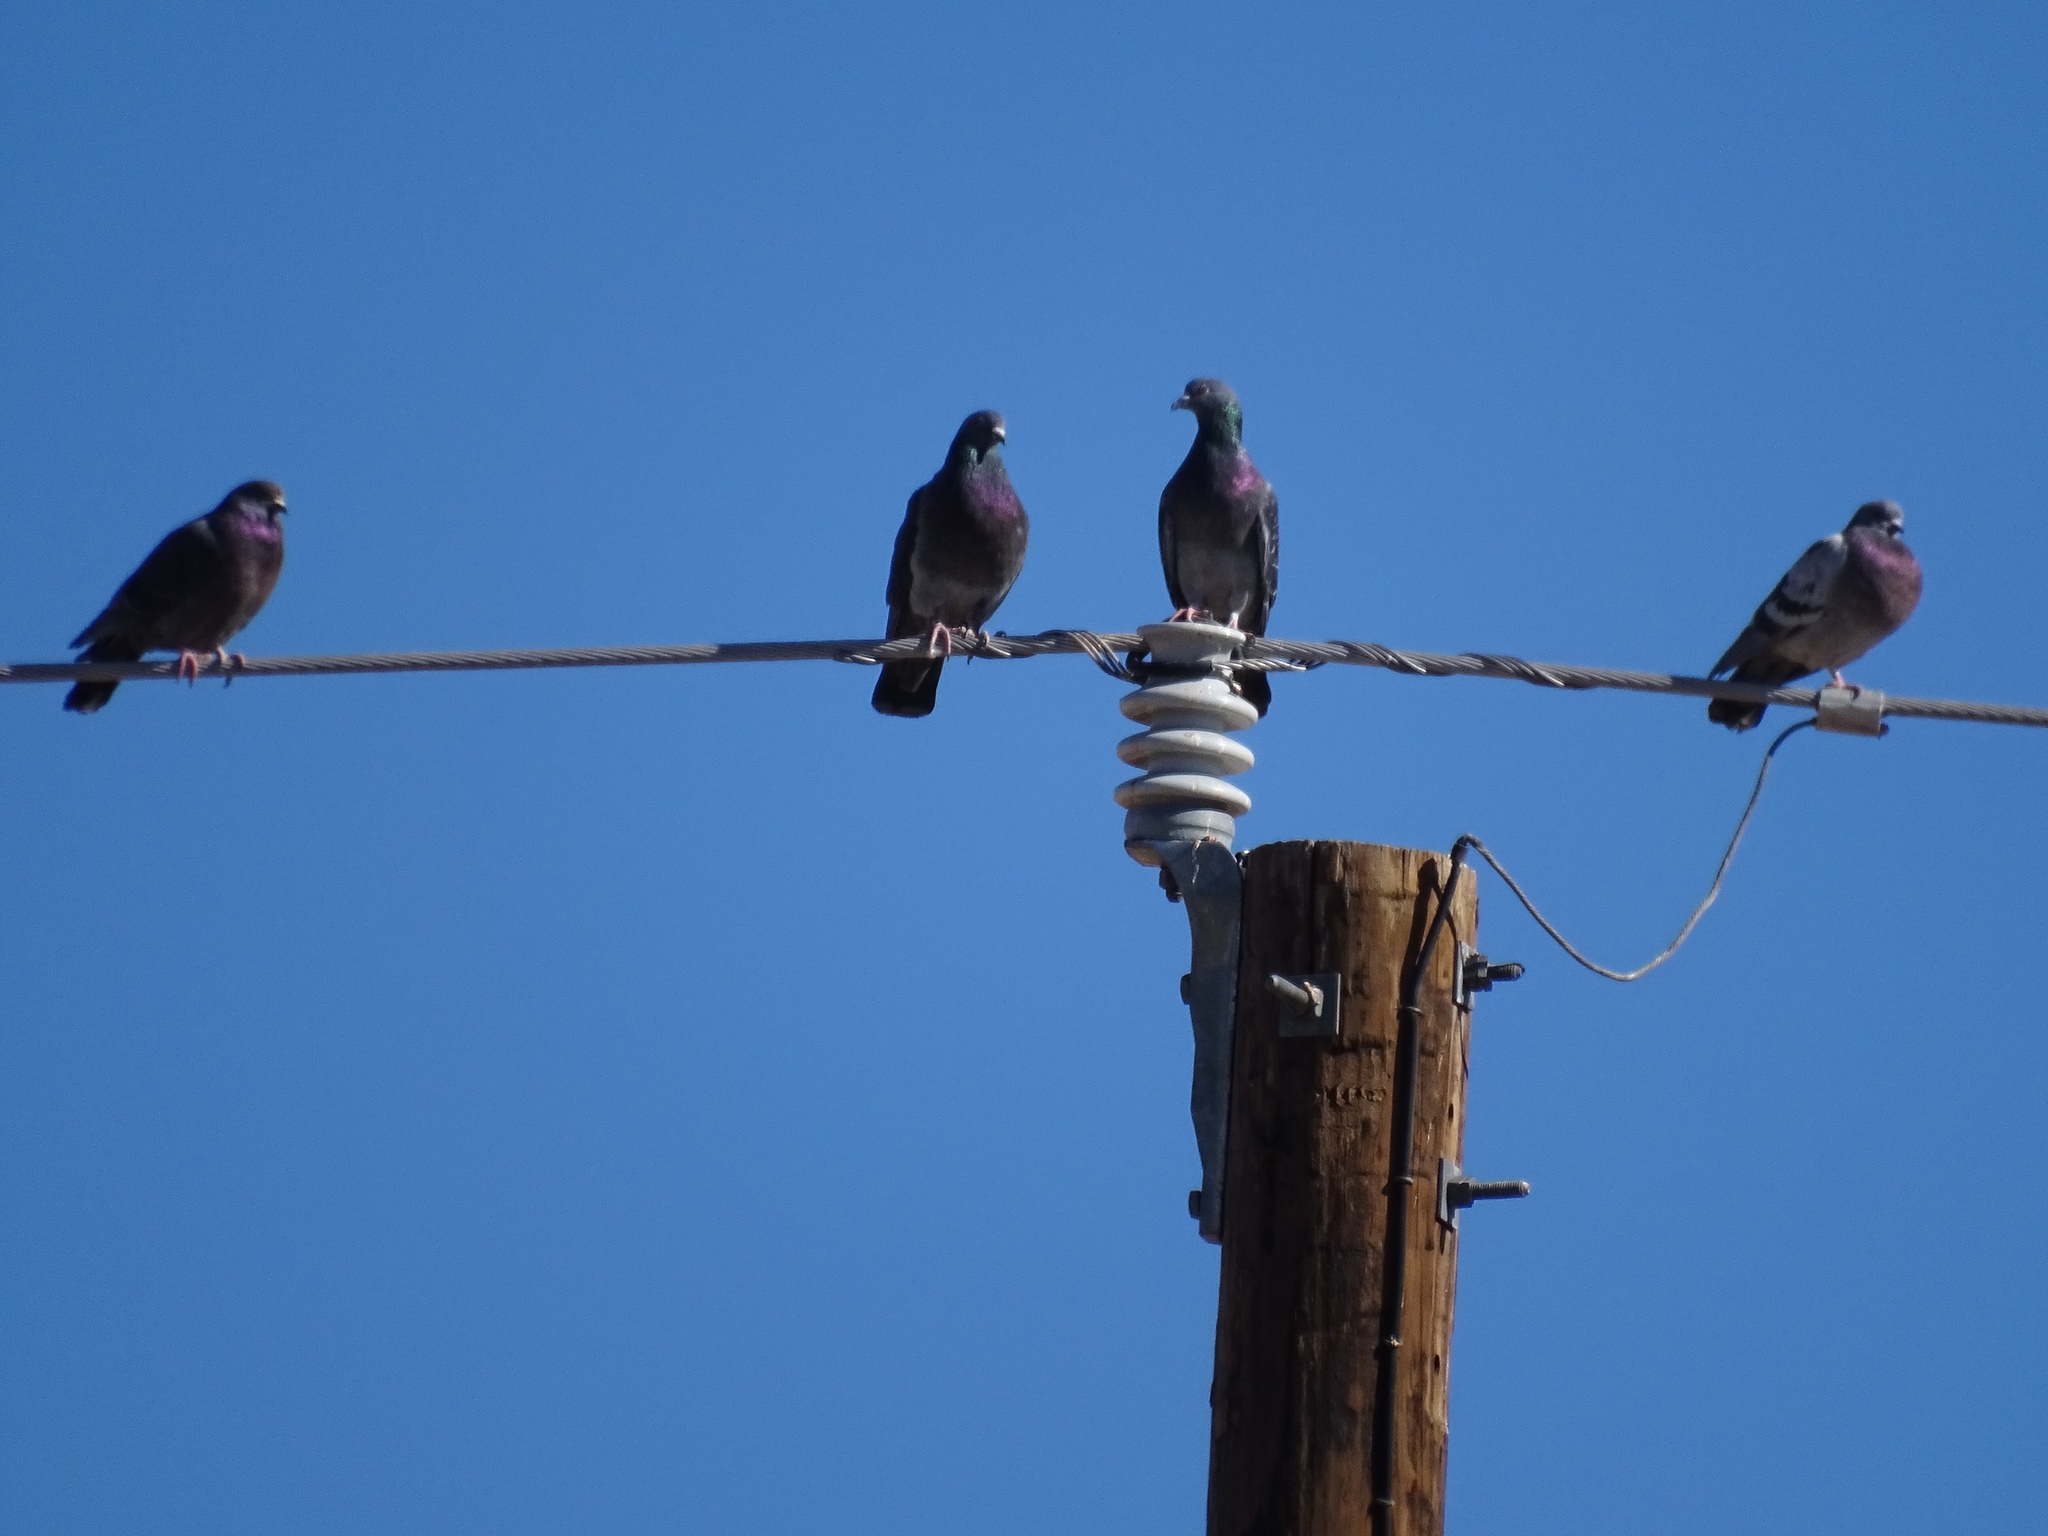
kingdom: Animalia
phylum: Chordata
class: Aves
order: Columbiformes
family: Columbidae
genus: Columba
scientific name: Columba livia
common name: Rock pigeon
